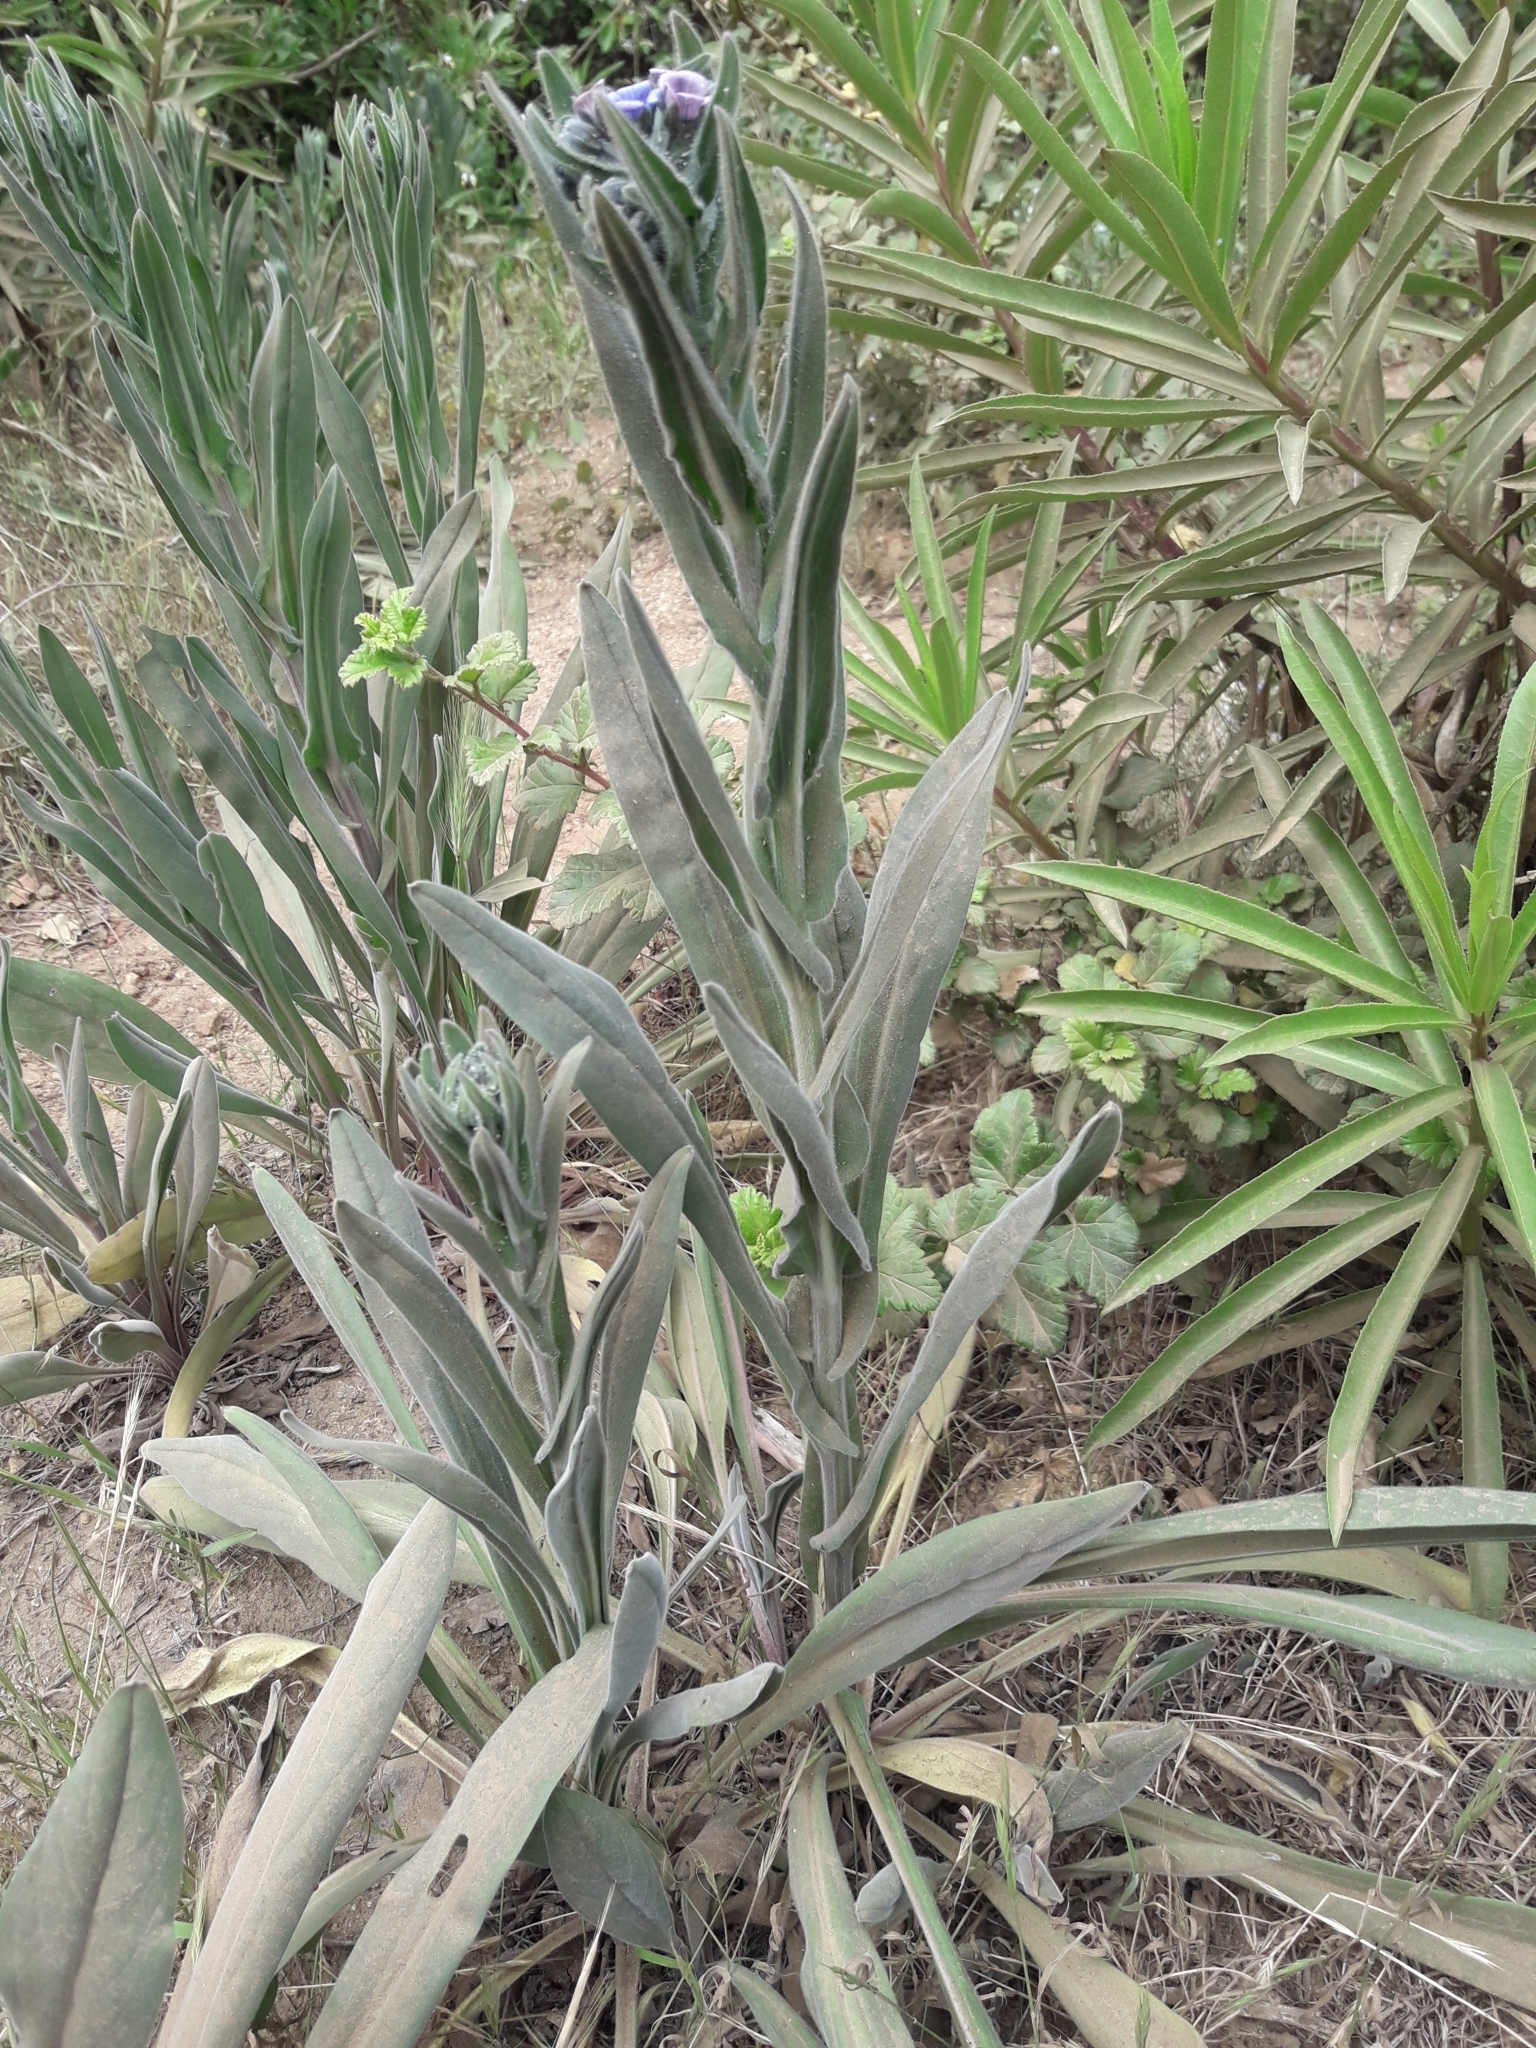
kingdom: Plantae
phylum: Tracheophyta
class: Magnoliopsida
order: Boraginales
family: Boraginaceae
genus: Cynoglossum
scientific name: Cynoglossum creticum
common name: Blue hound's tongue
